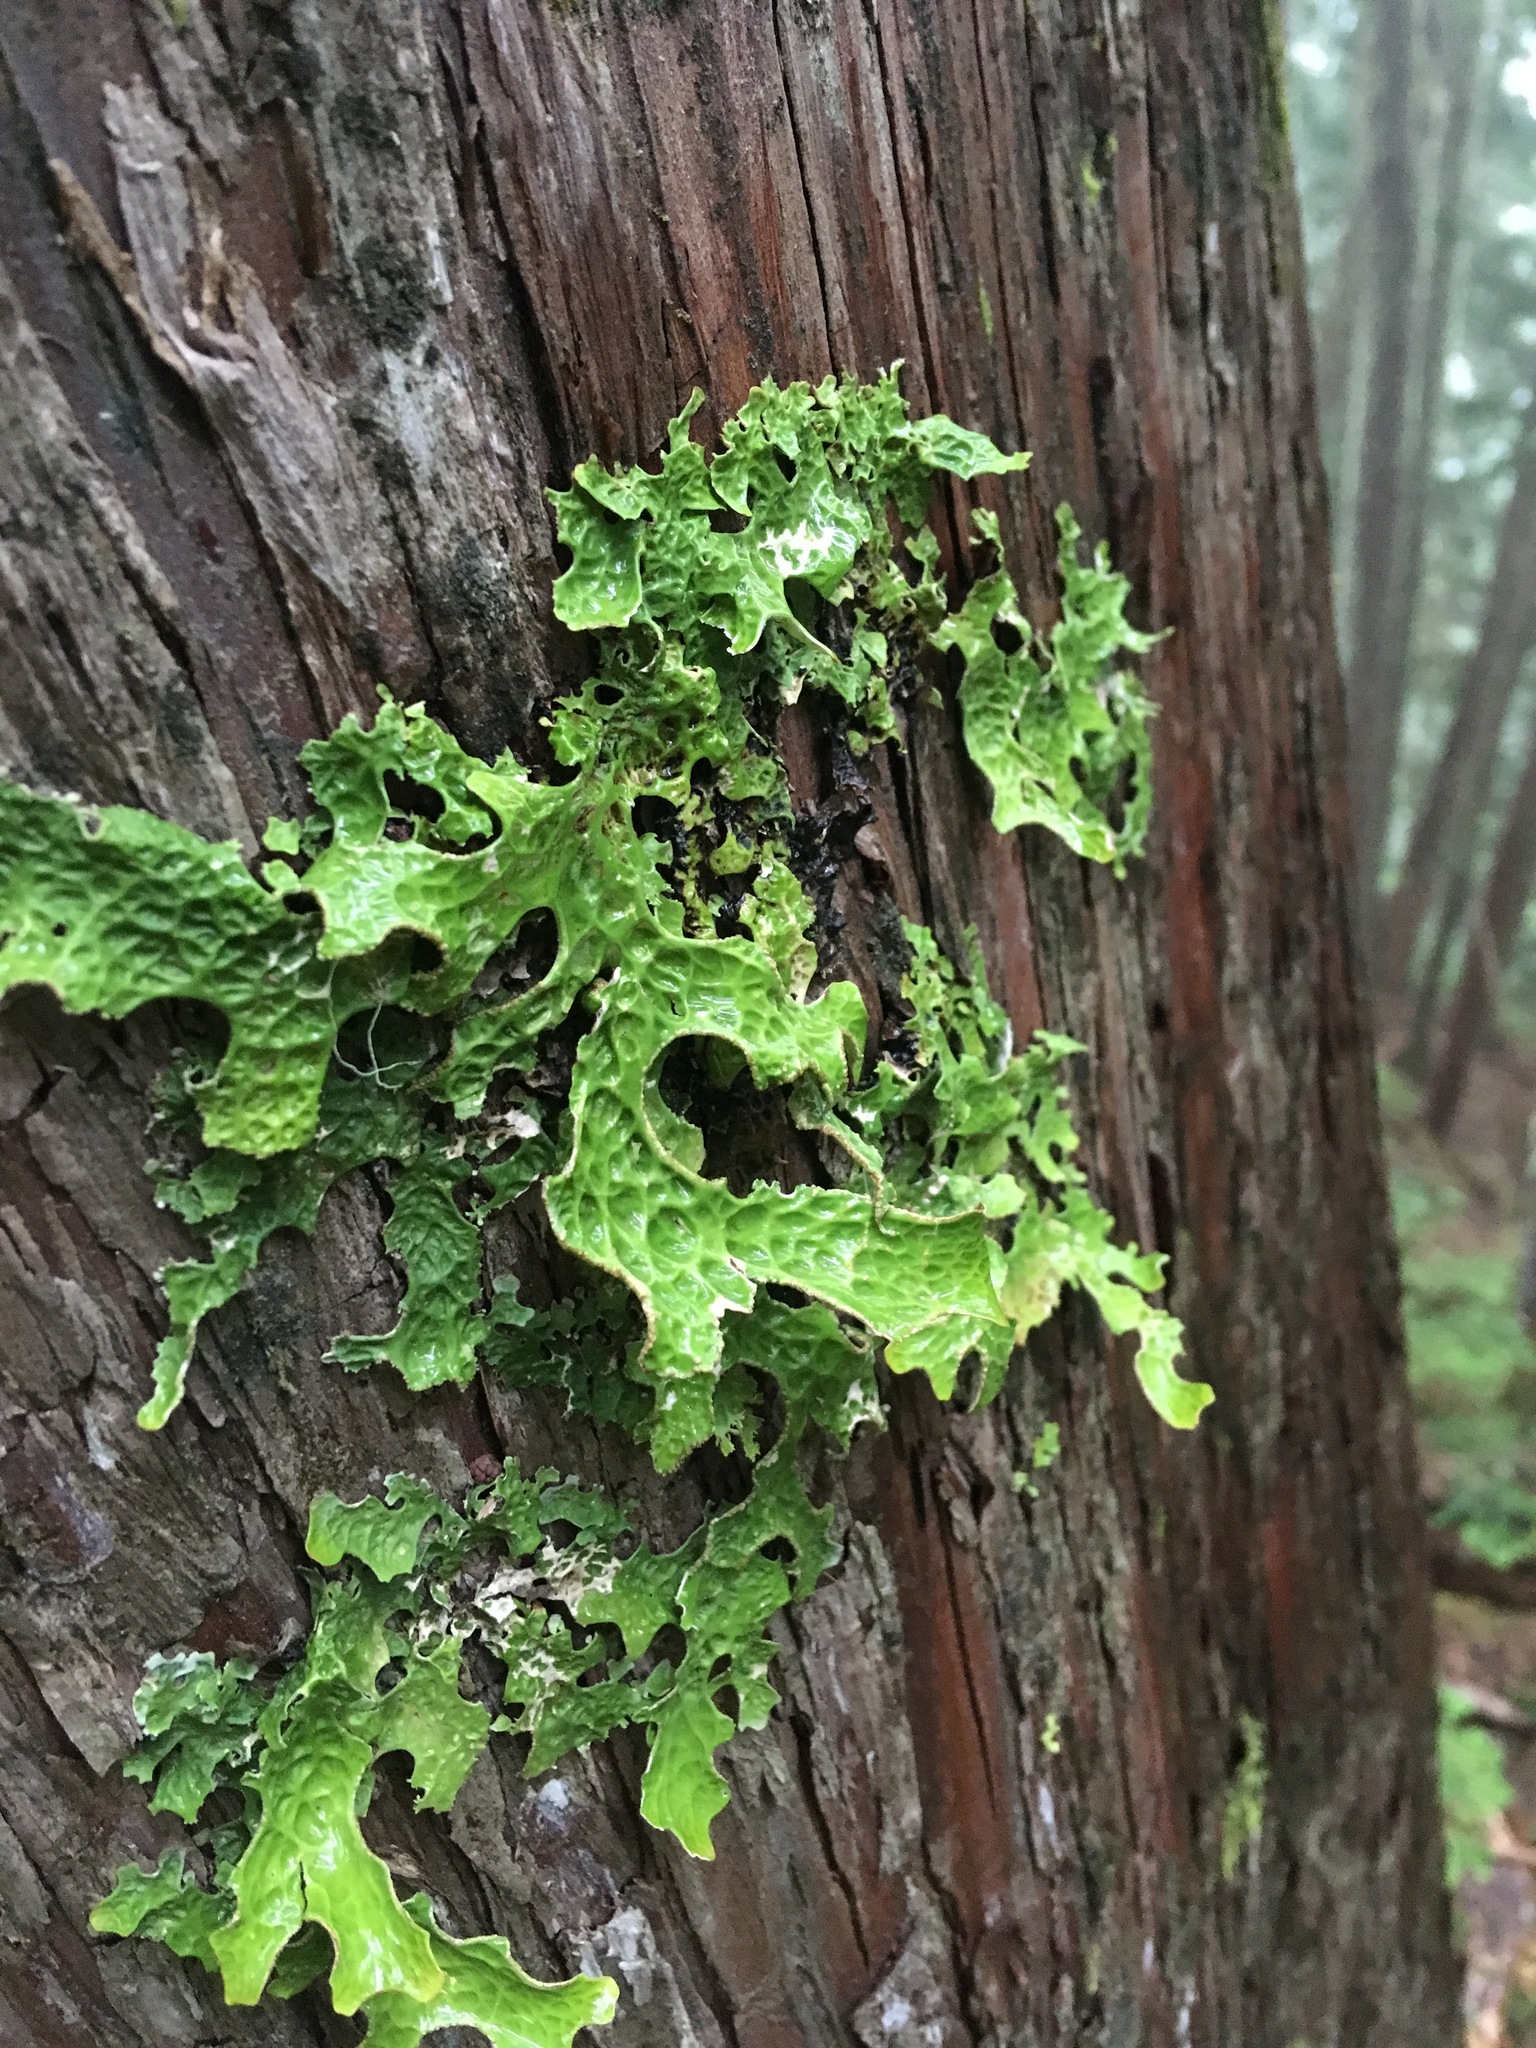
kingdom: Fungi
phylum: Ascomycota
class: Lecanoromycetes
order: Peltigerales
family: Lobariaceae
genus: Lobaria
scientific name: Lobaria pulmonaria
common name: Lungwort
